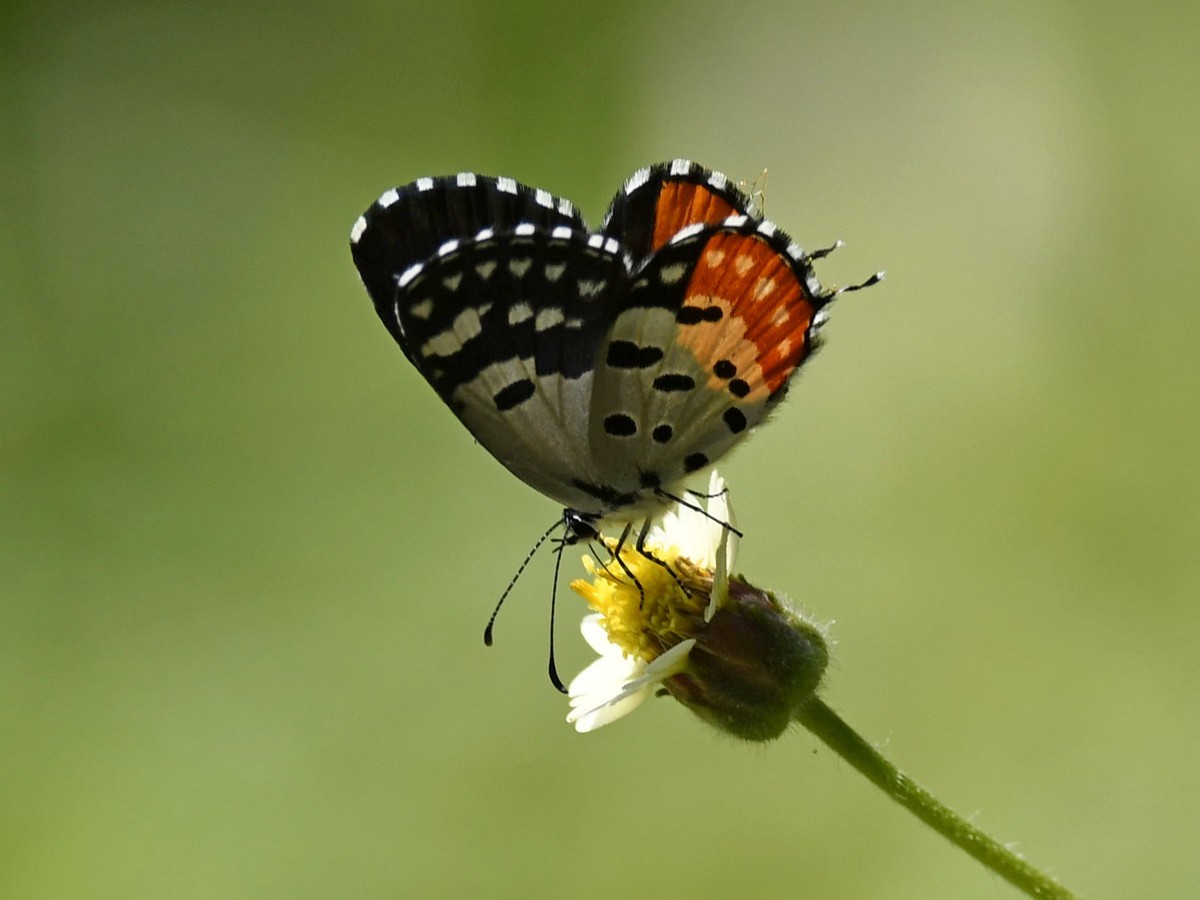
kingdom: Animalia
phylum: Arthropoda
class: Insecta
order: Lepidoptera
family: Lycaenidae
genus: Talicada
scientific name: Talicada nyseus
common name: Red pierrot
